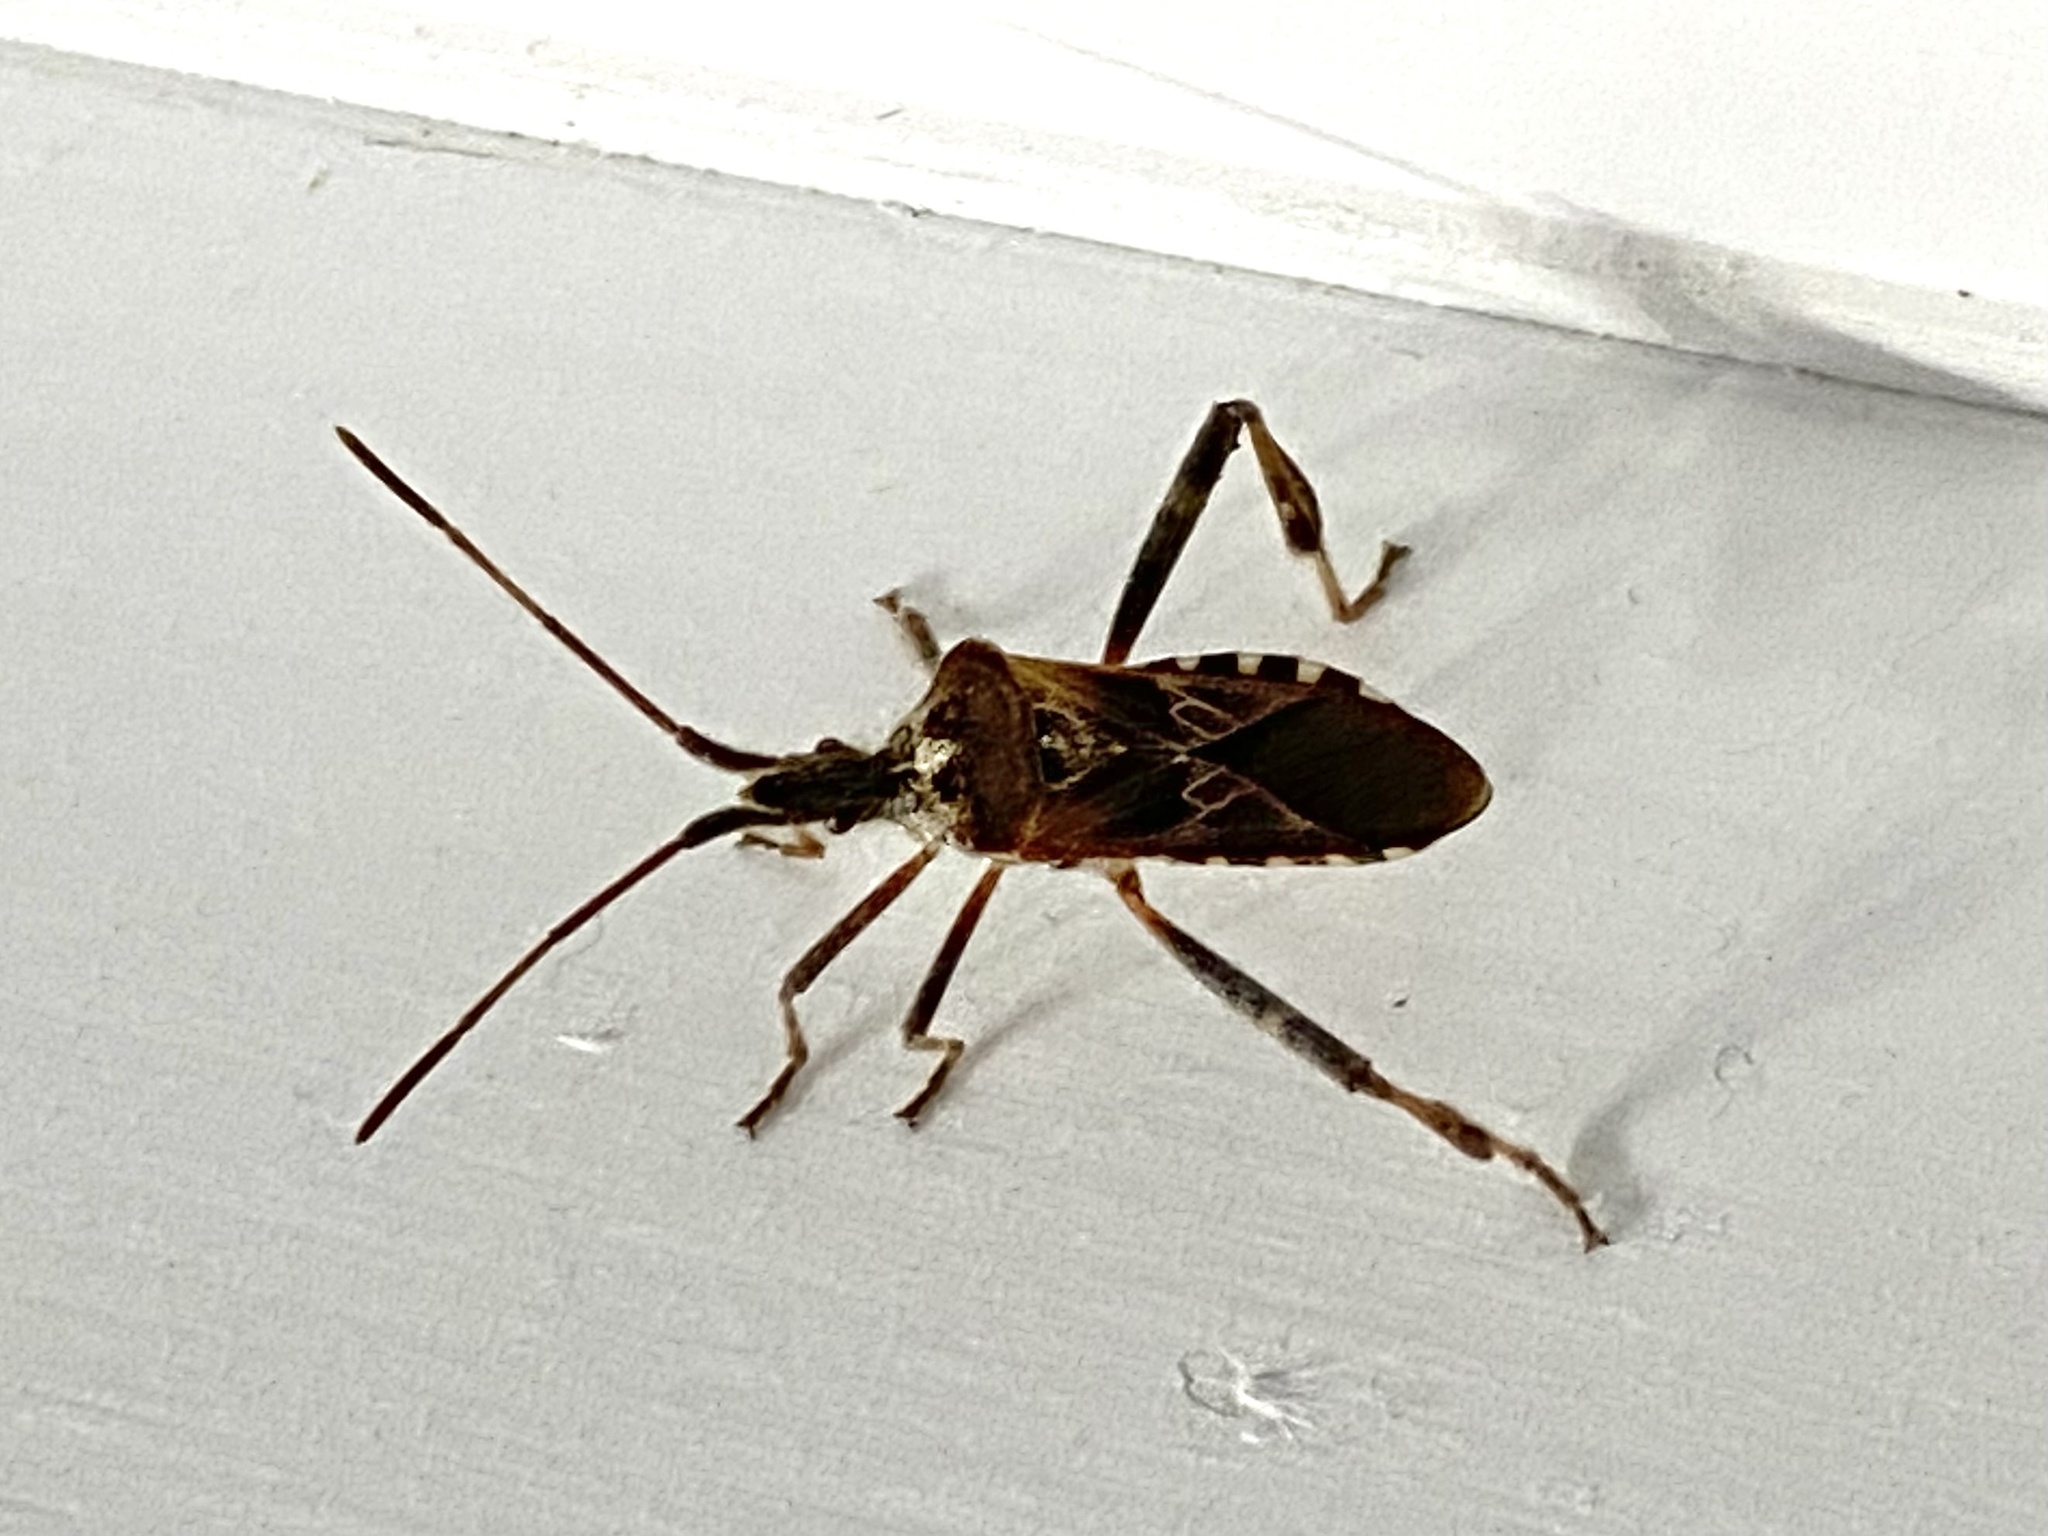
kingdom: Animalia
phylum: Arthropoda
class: Insecta
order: Hemiptera
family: Coreidae
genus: Leptoglossus
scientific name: Leptoglossus occidentalis
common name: Western conifer-seed bug
